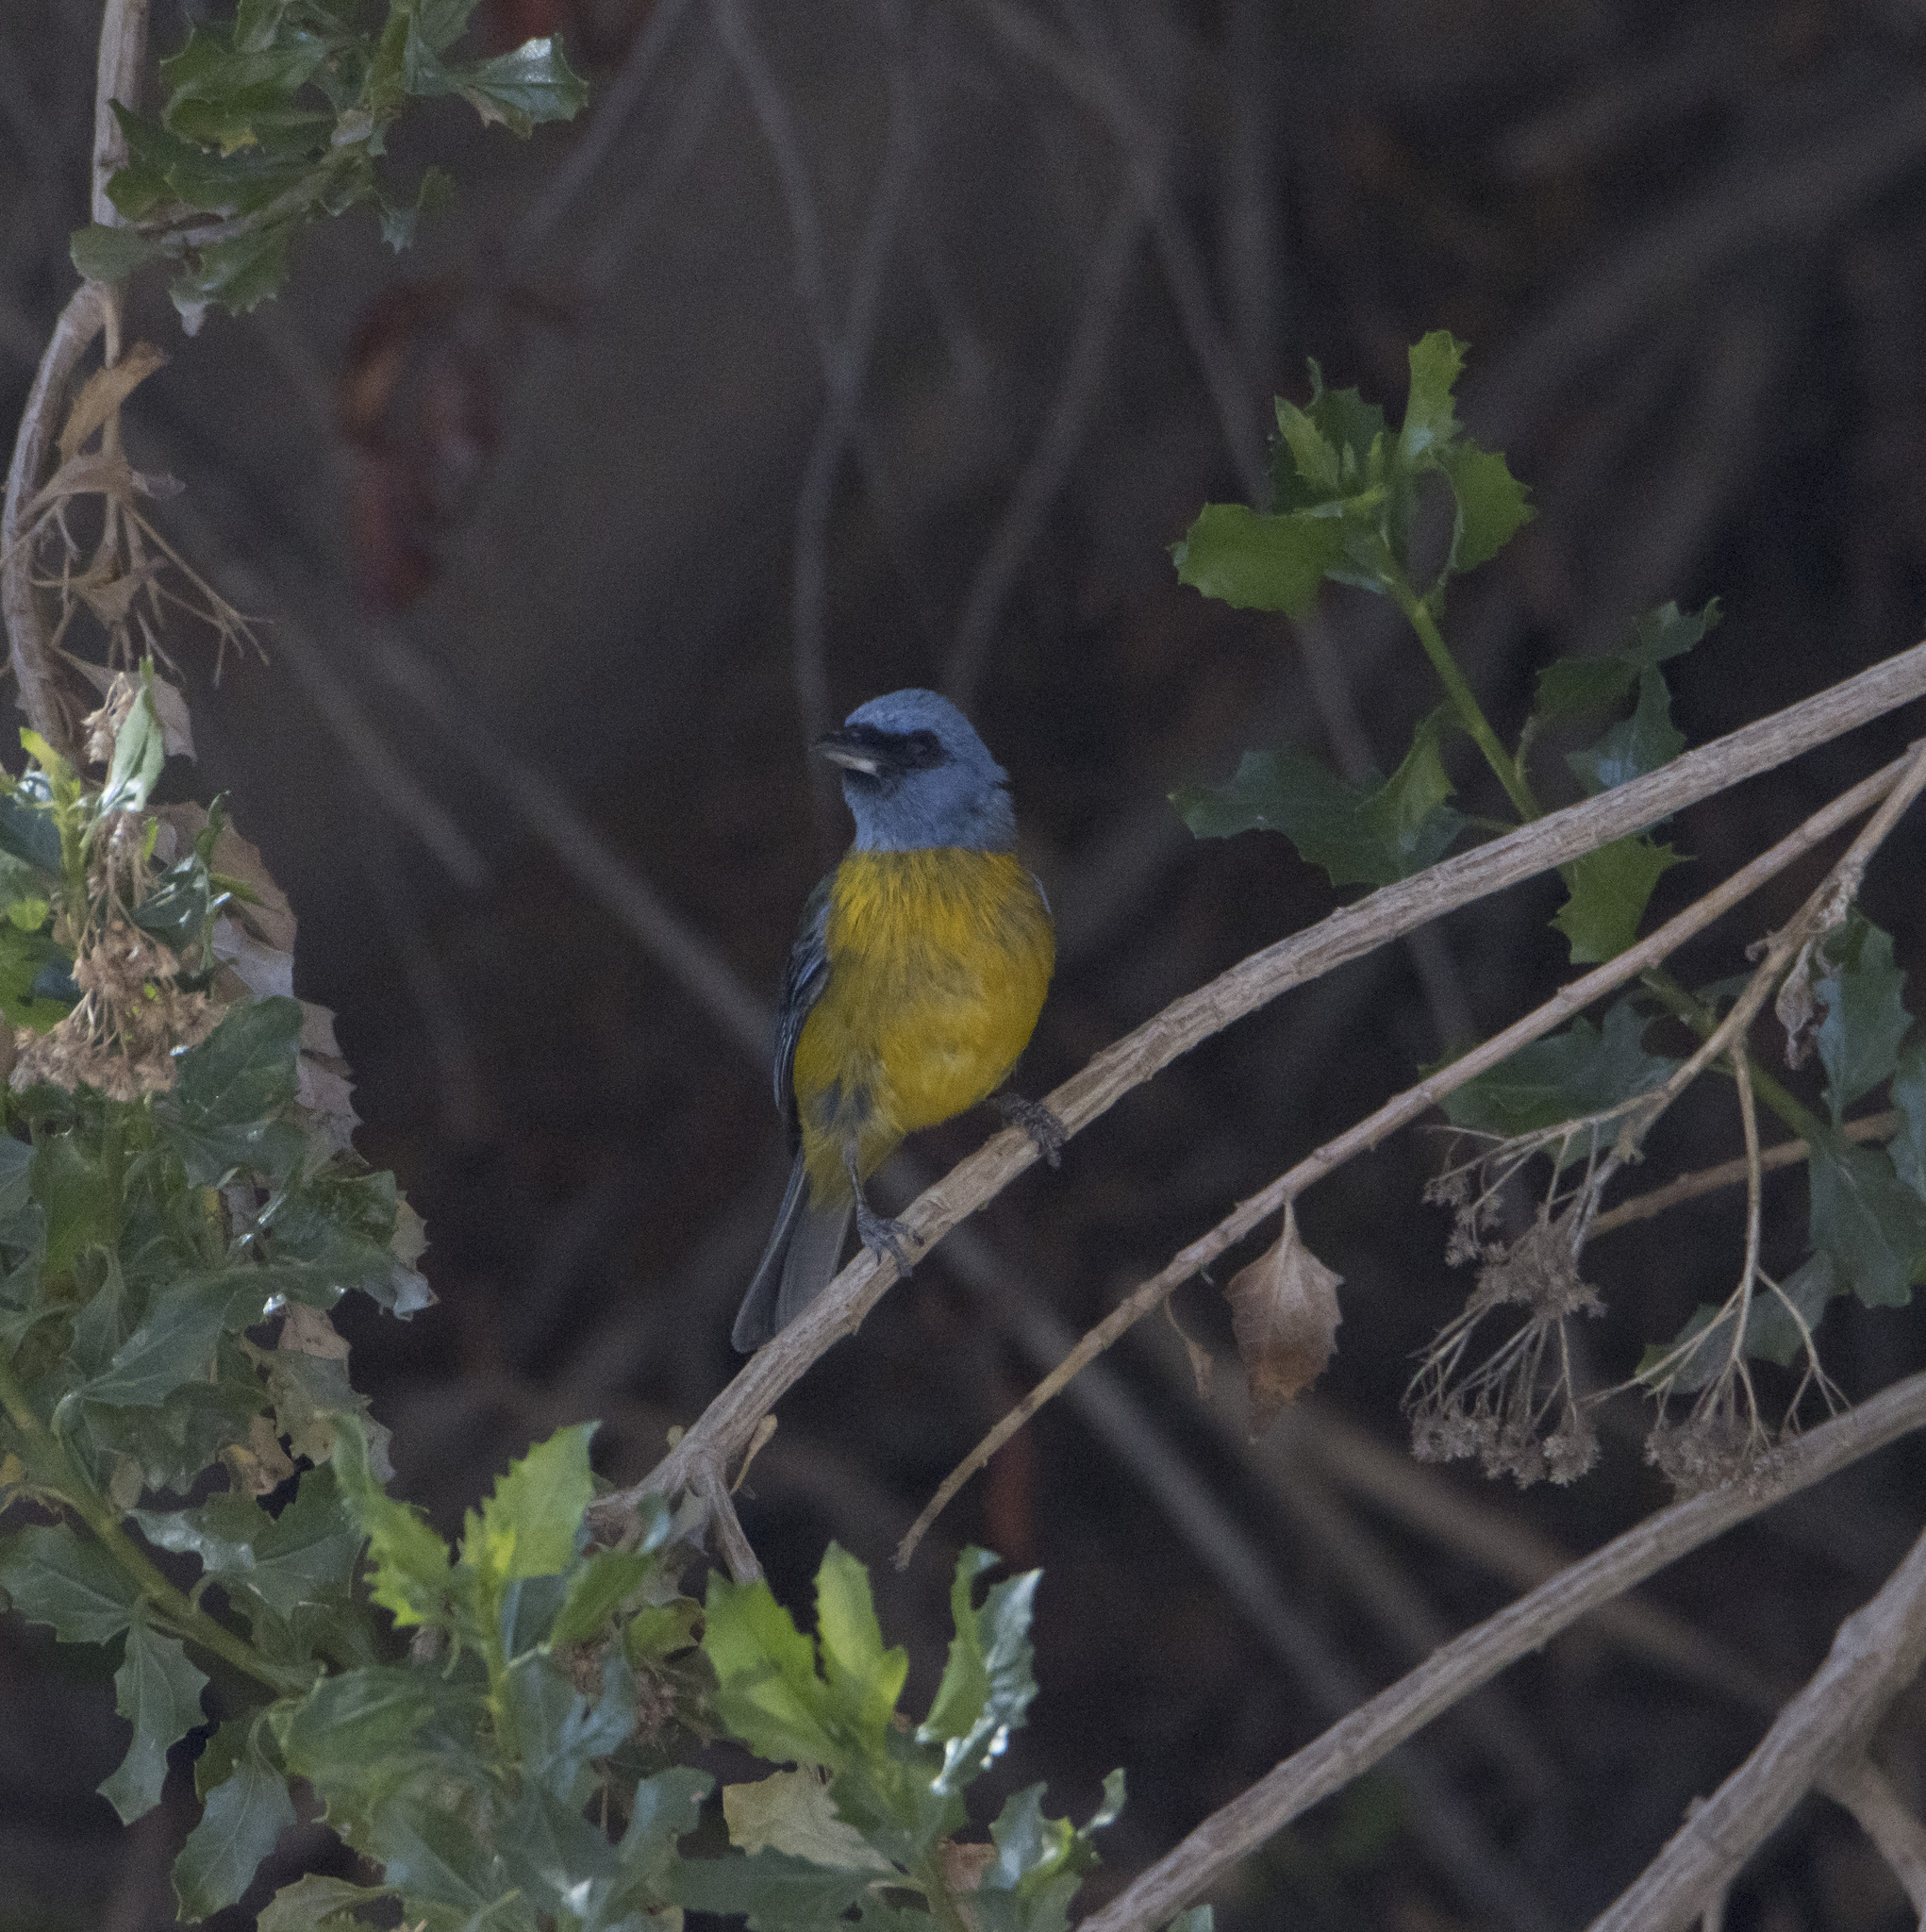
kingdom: Animalia
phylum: Chordata
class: Aves
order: Passeriformes
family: Thraupidae
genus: Rauenia
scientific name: Rauenia bonariensis
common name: Blue-and-yellow tanager
